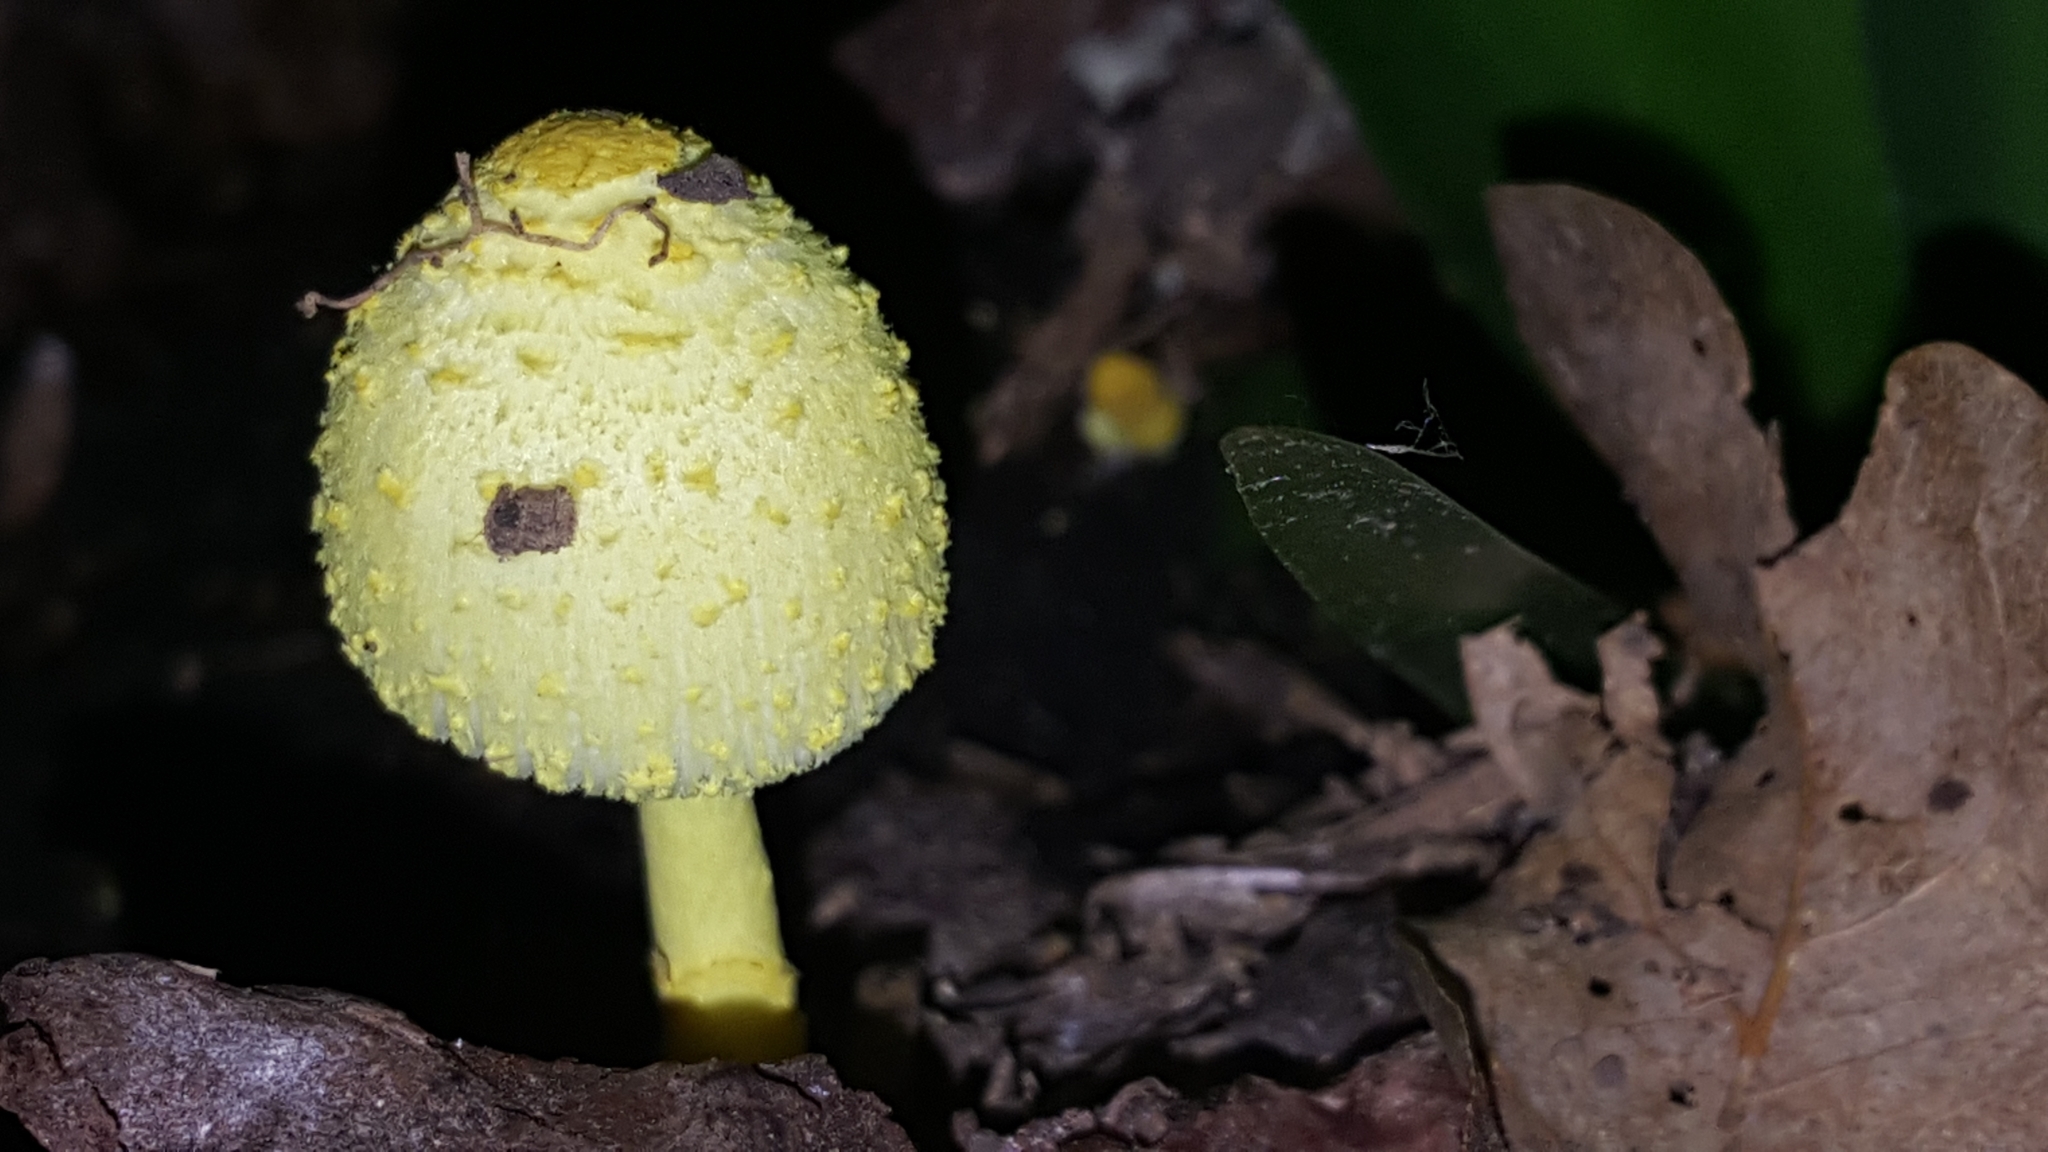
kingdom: Fungi
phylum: Basidiomycota
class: Agaricomycetes
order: Agaricales
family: Agaricaceae
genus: Leucocoprinus
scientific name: Leucocoprinus birnbaumii
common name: Plantpot dapperling
